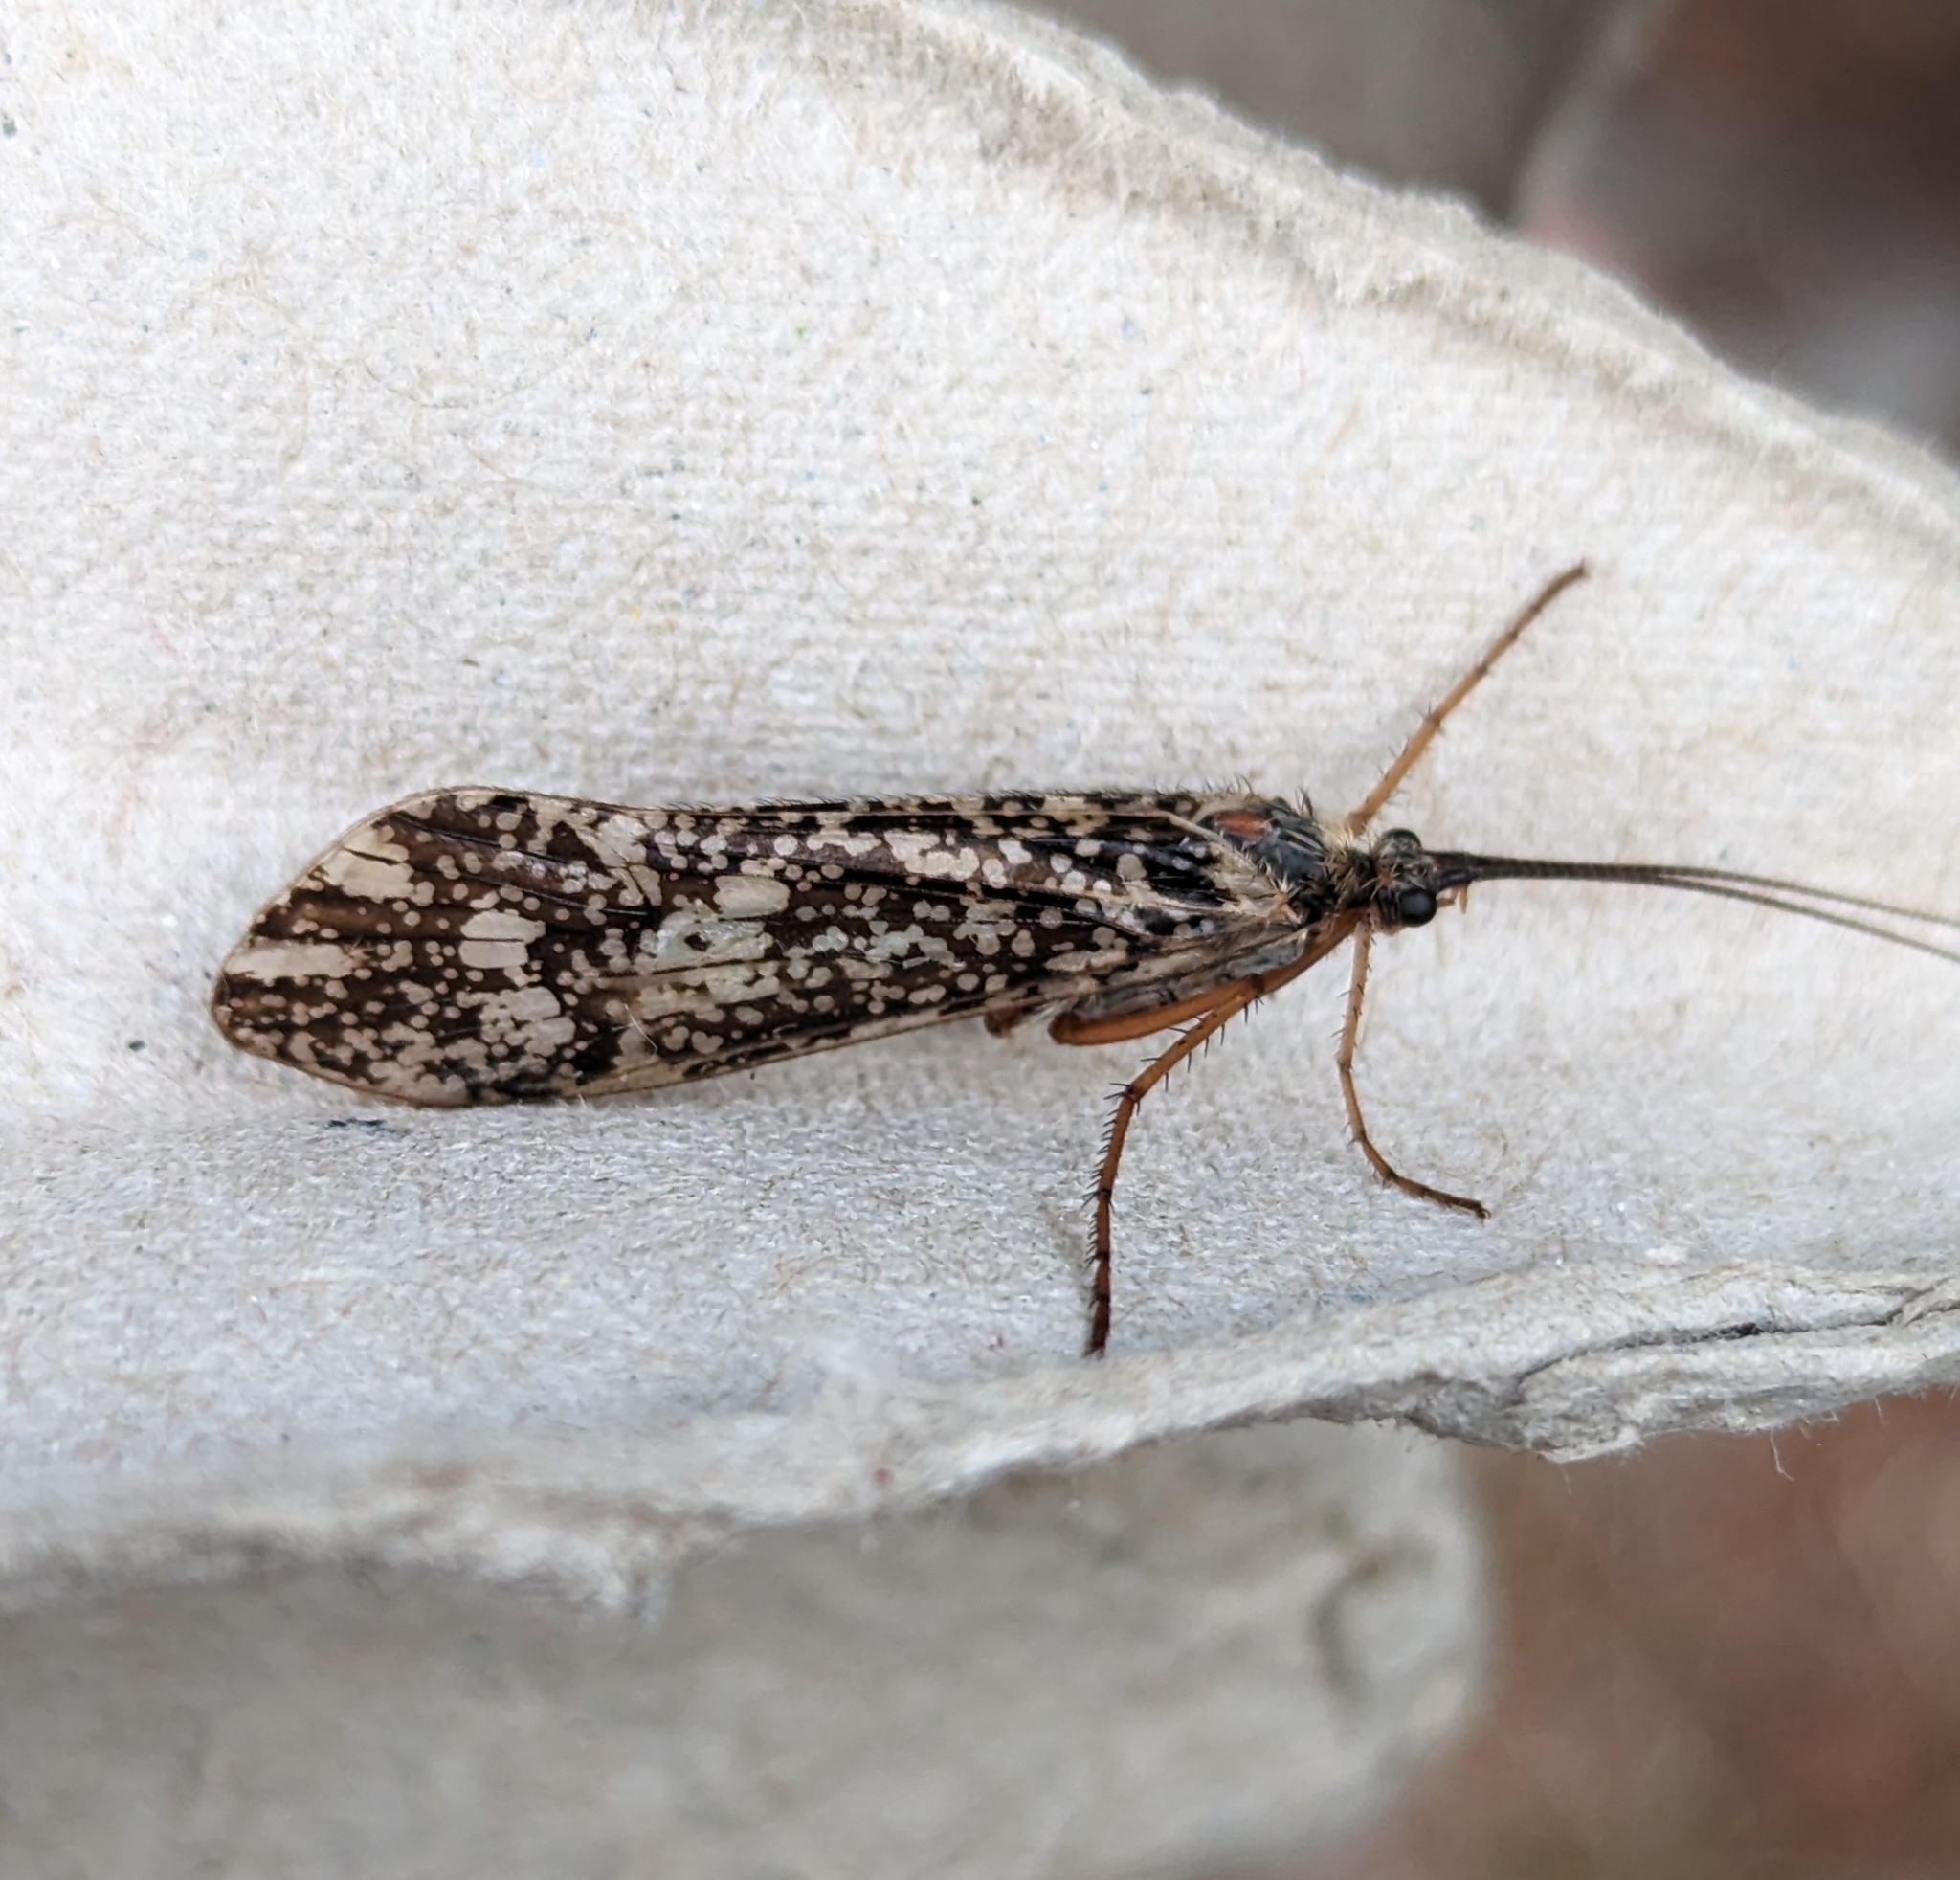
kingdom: Animalia
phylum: Arthropoda
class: Insecta
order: Trichoptera
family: Limnephilidae
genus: Clistoronia
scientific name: Clistoronia magnifica
